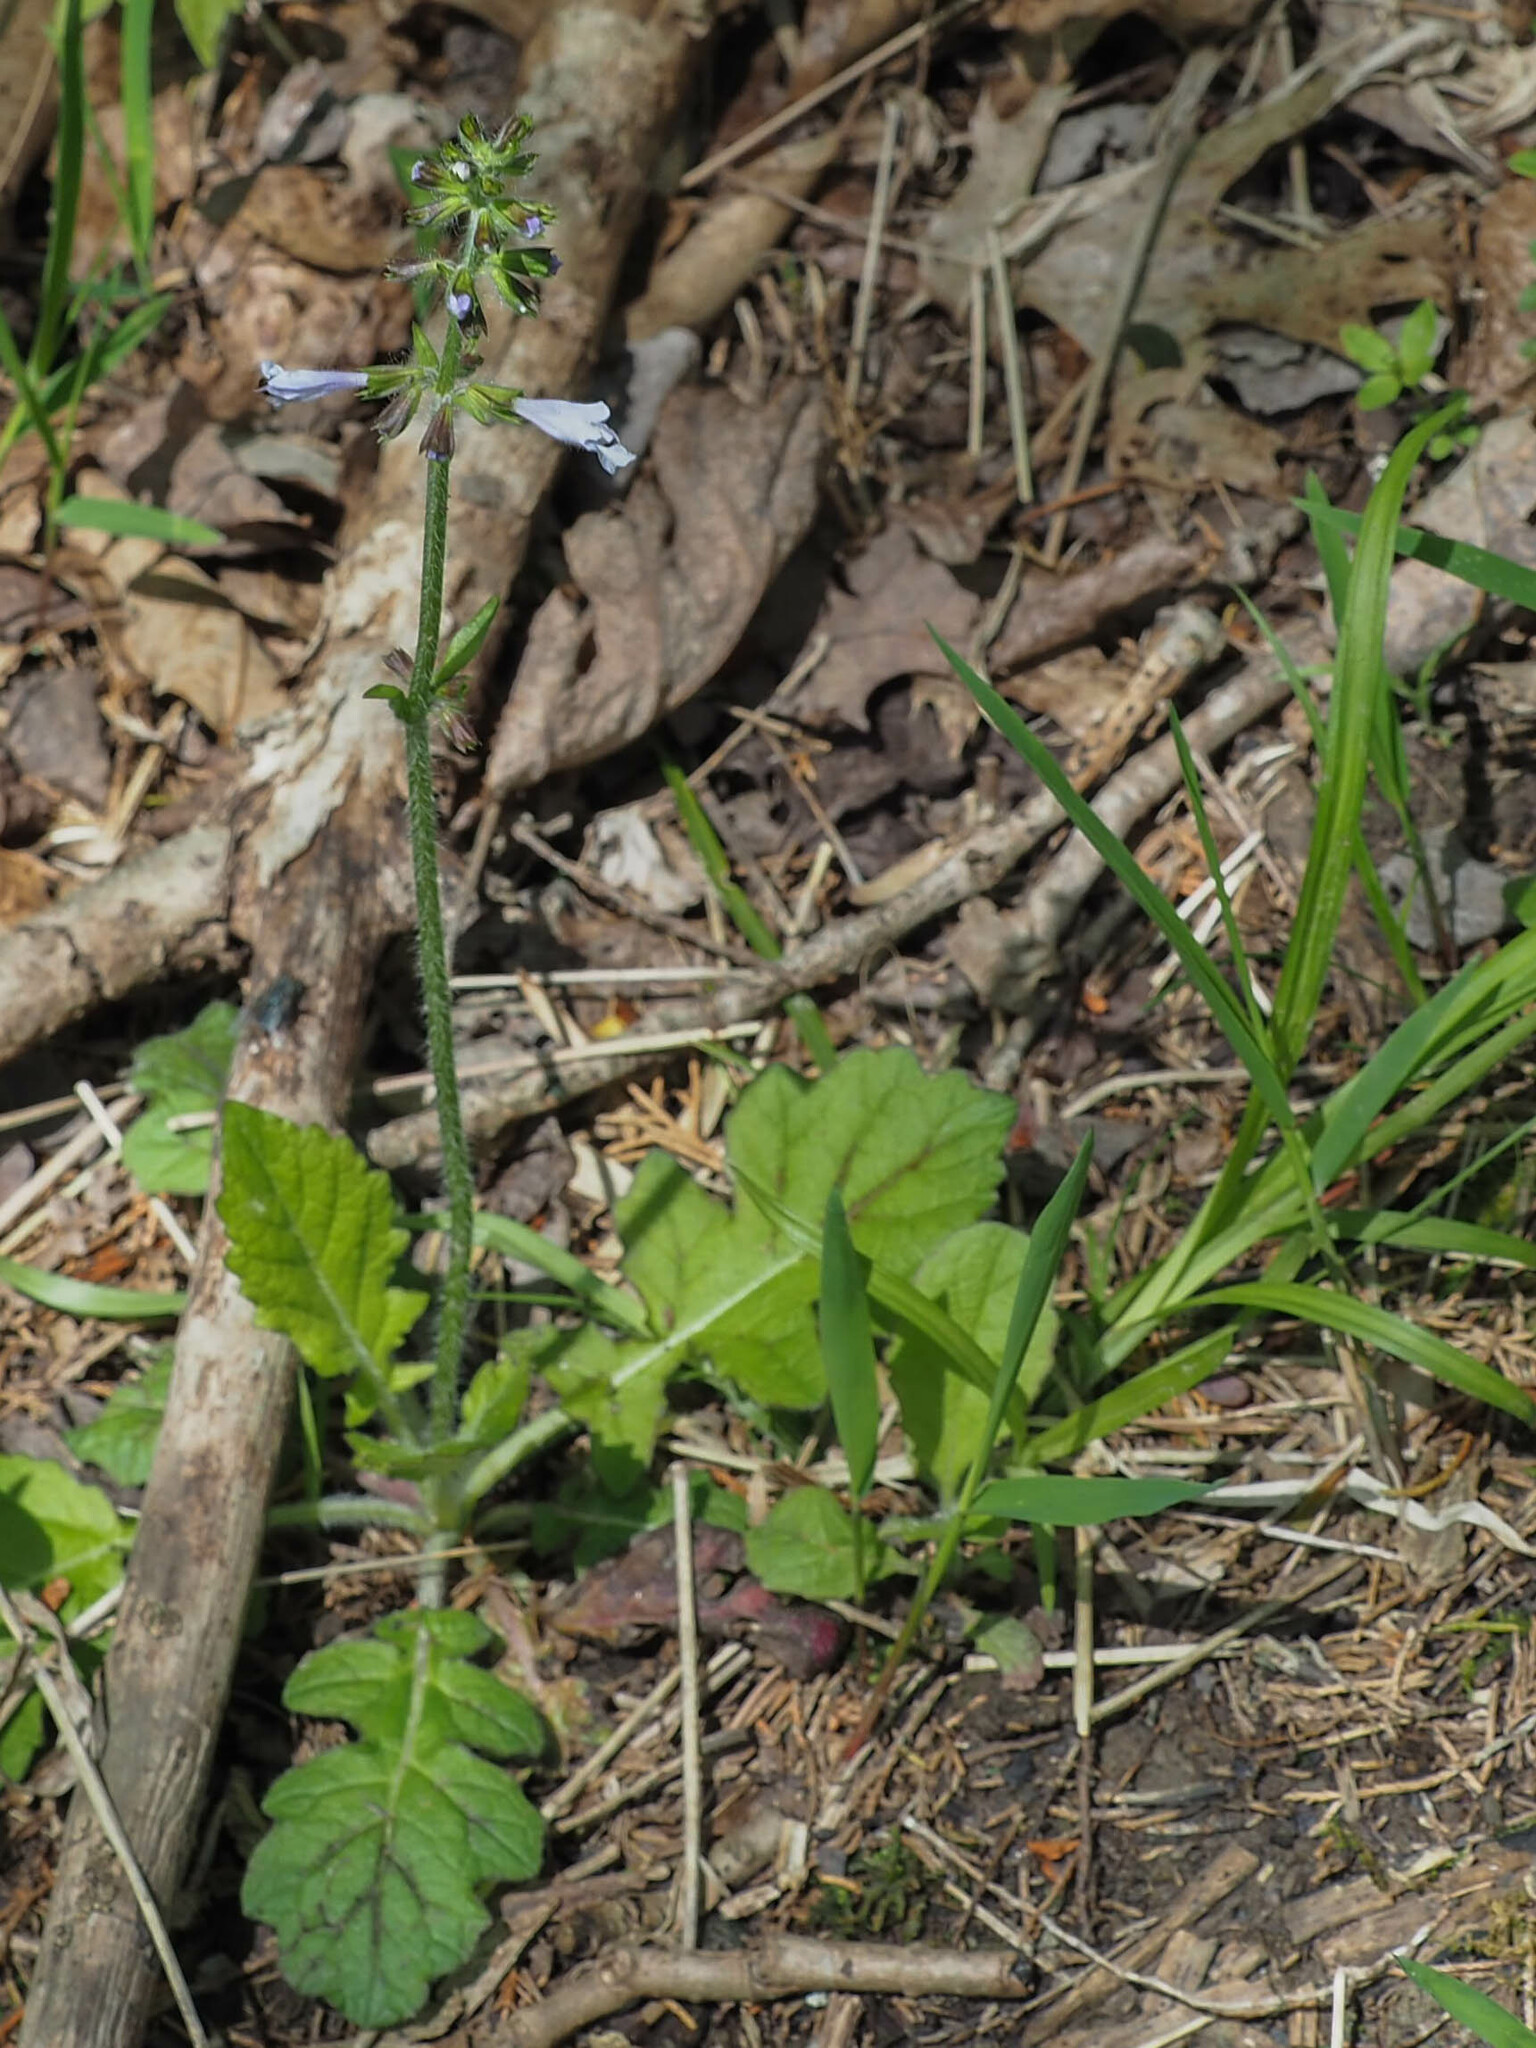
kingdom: Plantae
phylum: Tracheophyta
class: Magnoliopsida
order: Lamiales
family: Lamiaceae
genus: Salvia
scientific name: Salvia lyrata
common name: Cancerweed
